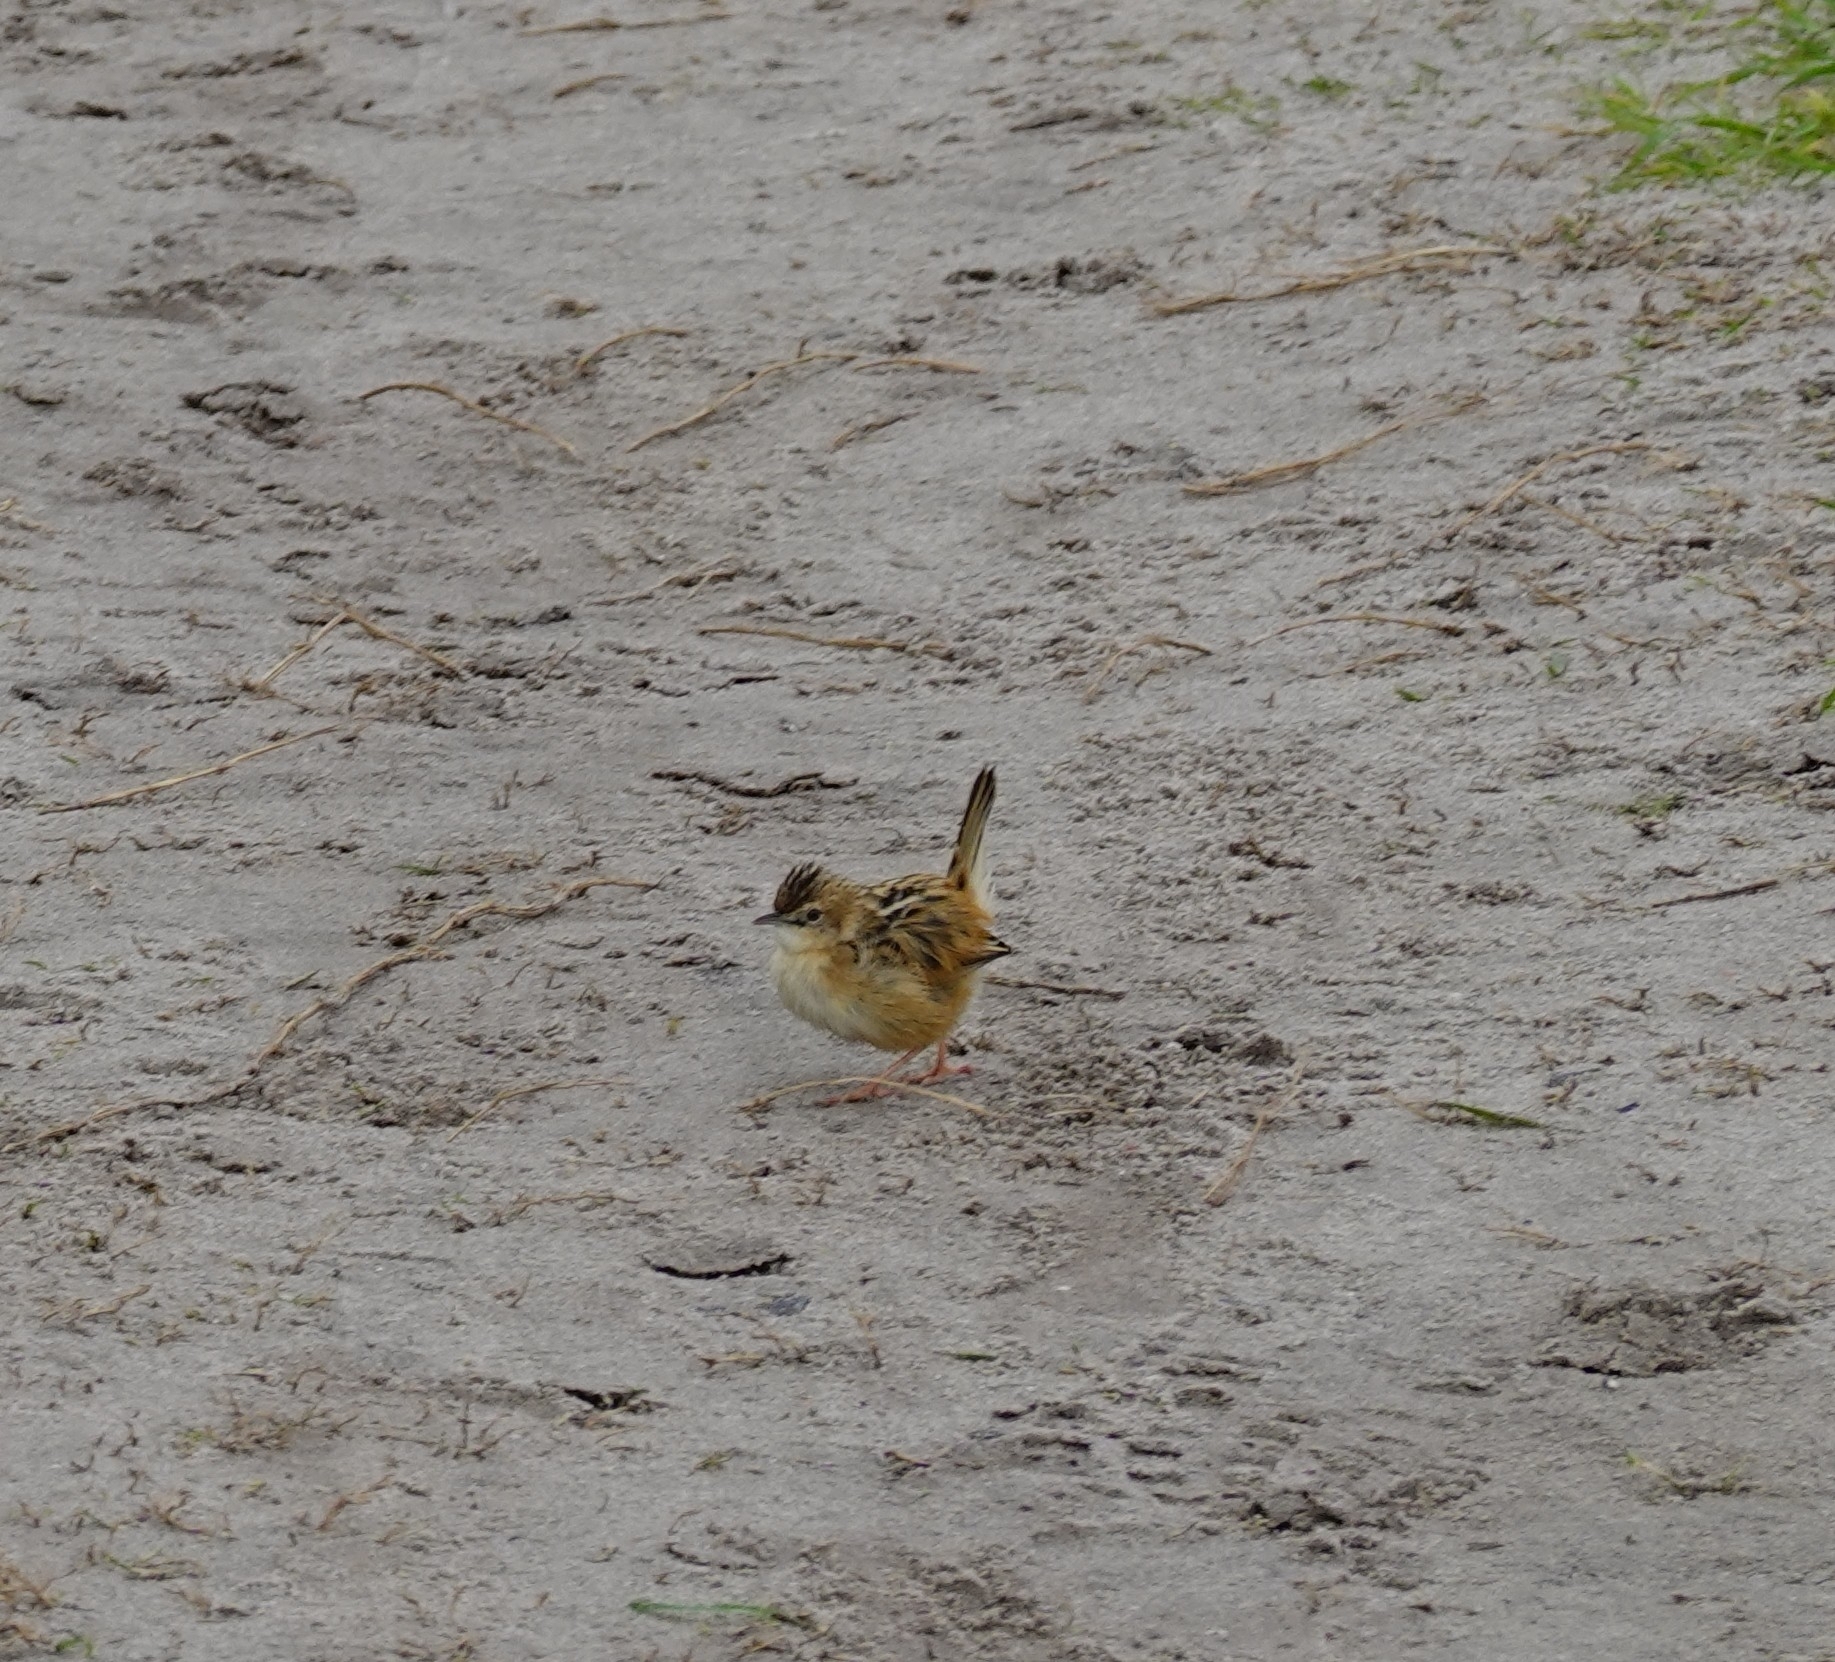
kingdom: Animalia
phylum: Chordata
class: Aves
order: Passeriformes
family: Cisticolidae
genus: Cisticola
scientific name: Cisticola juncidis
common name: Zitting cisticola
